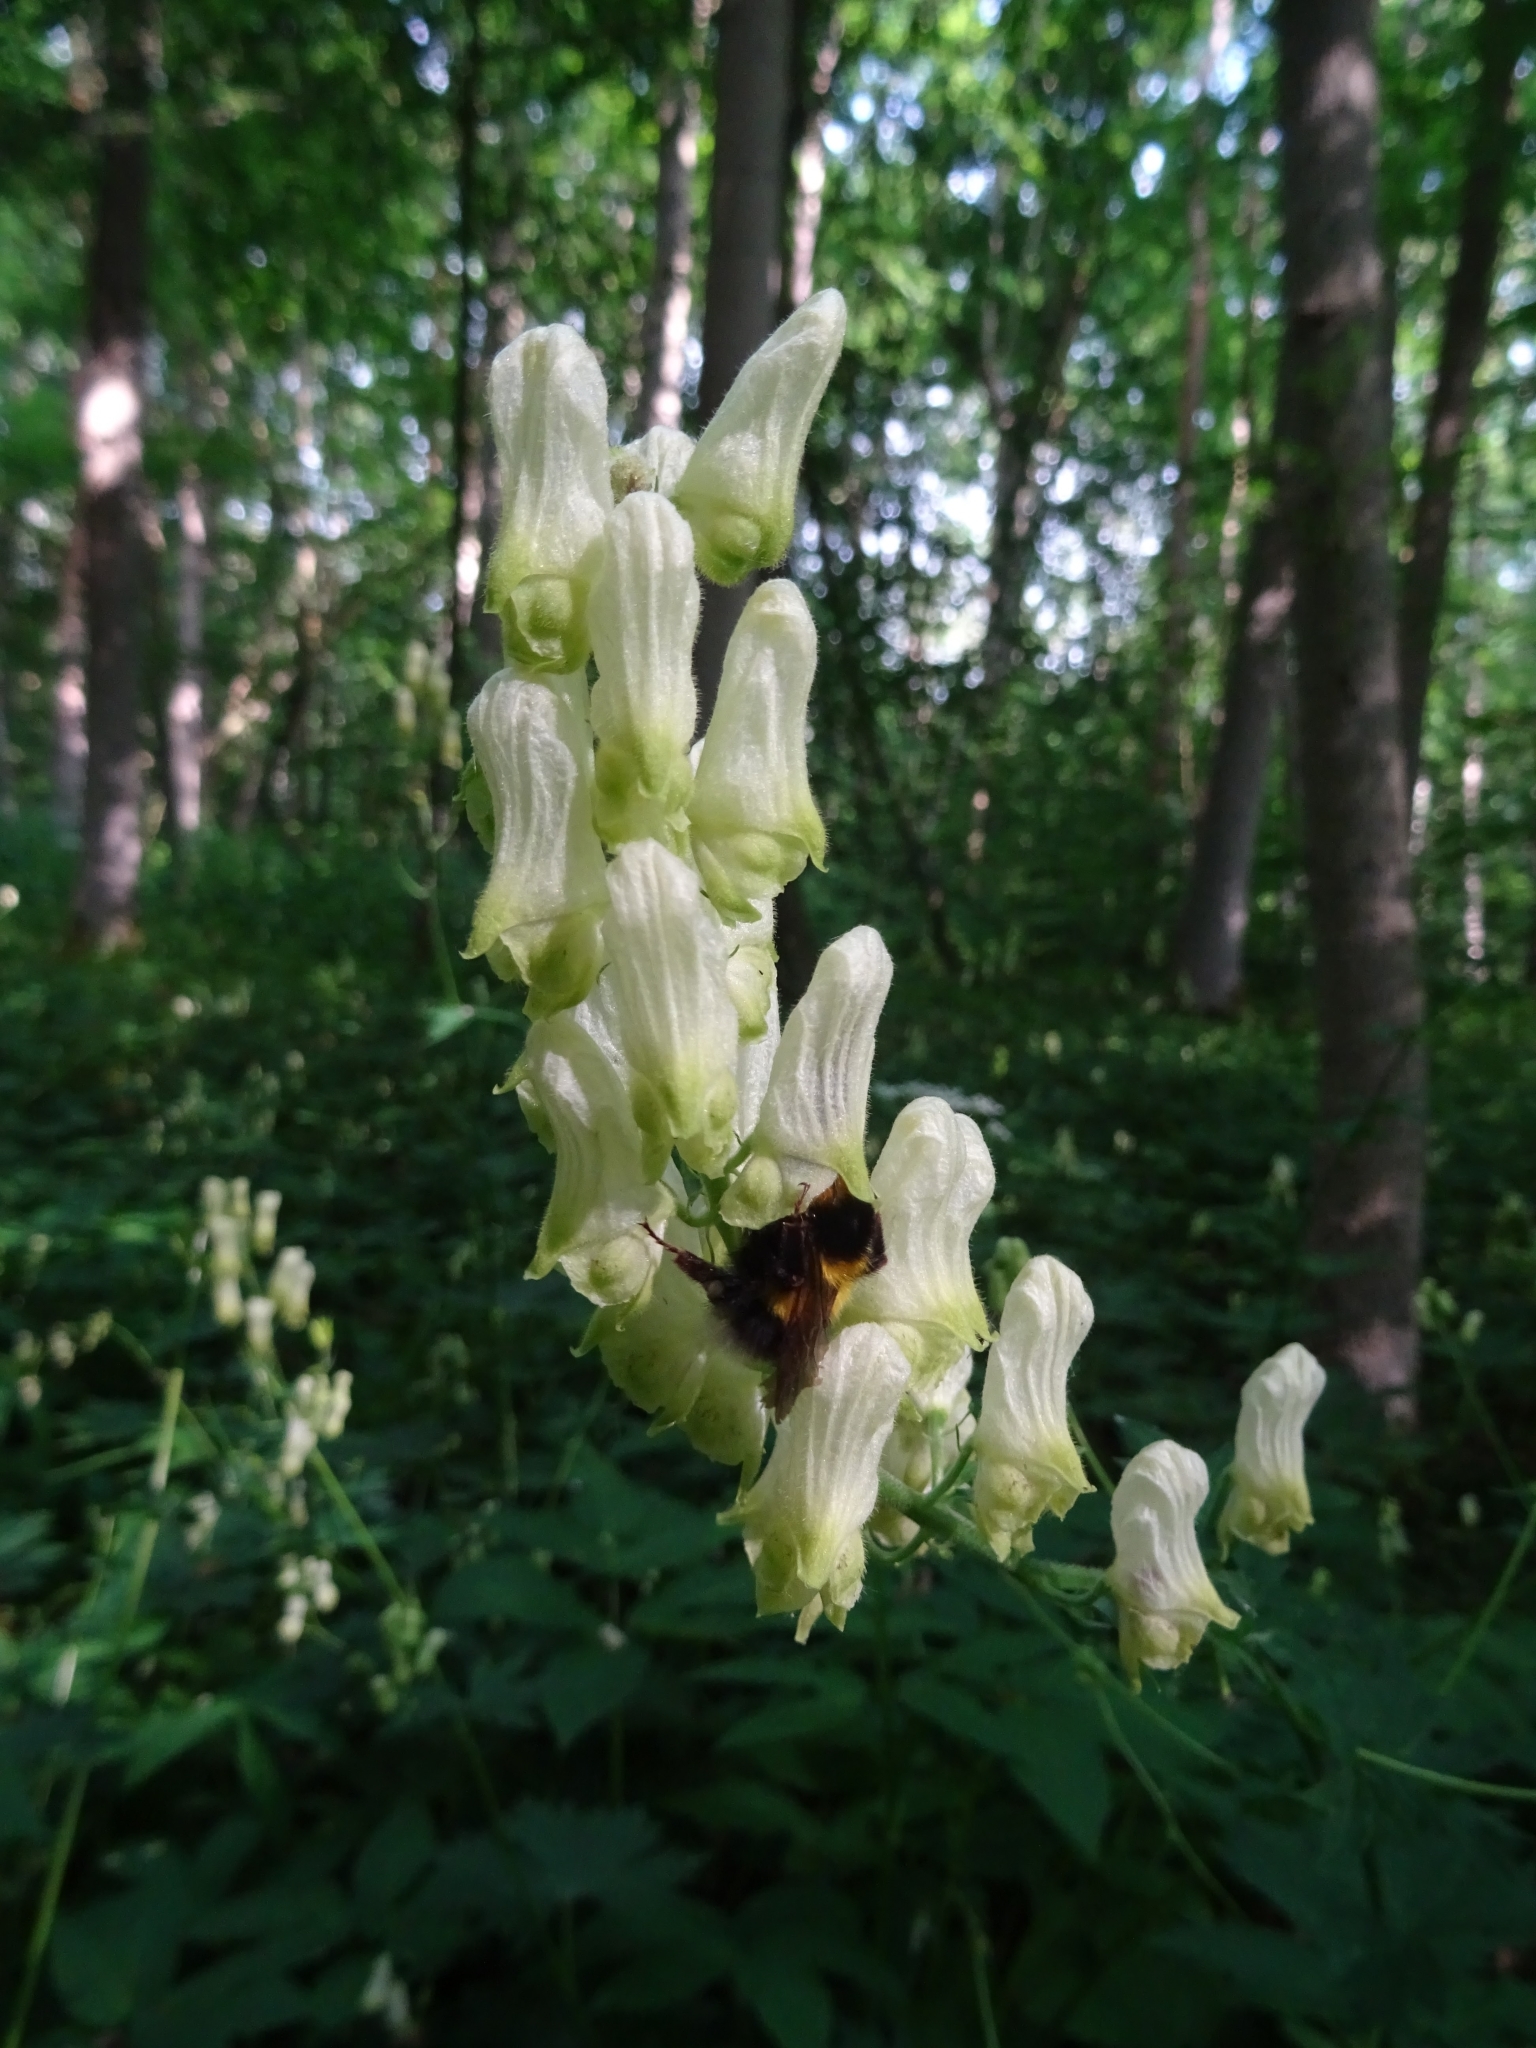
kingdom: Plantae
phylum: Tracheophyta
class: Magnoliopsida
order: Ranunculales
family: Ranunculaceae
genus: Aconitum
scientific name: Aconitum lycoctonum
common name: Wolf's-bane
